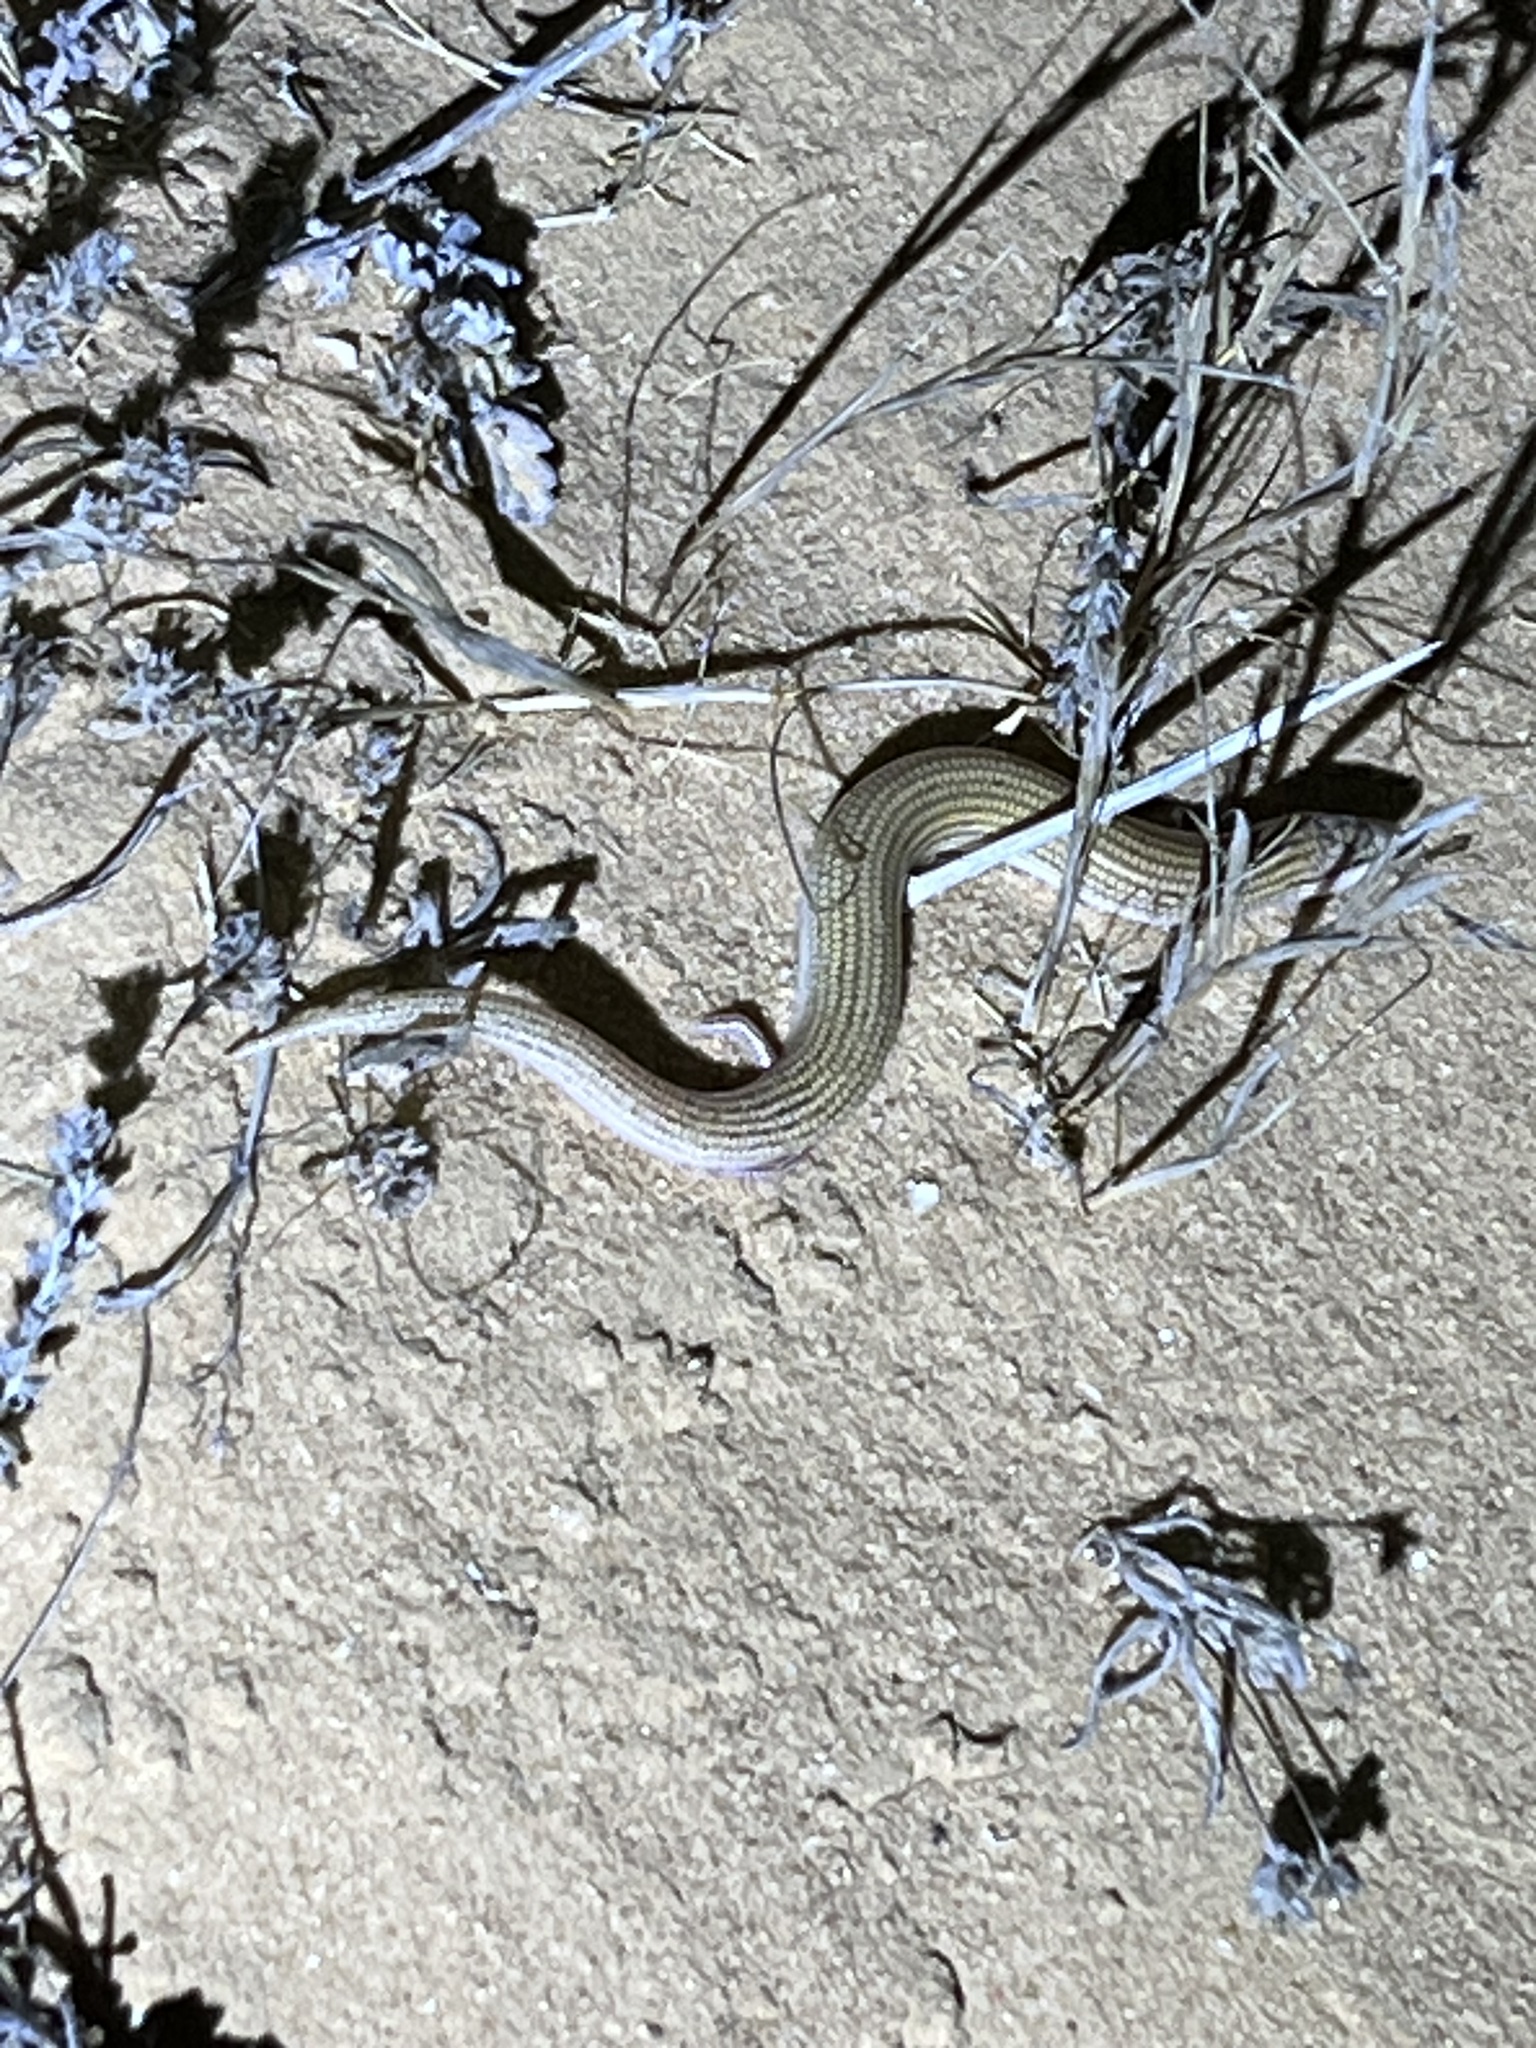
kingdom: Animalia
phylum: Chordata
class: Squamata
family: Scincidae
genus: Chalcides
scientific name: Chalcides sepsoides
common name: Wedge-snouted skink
